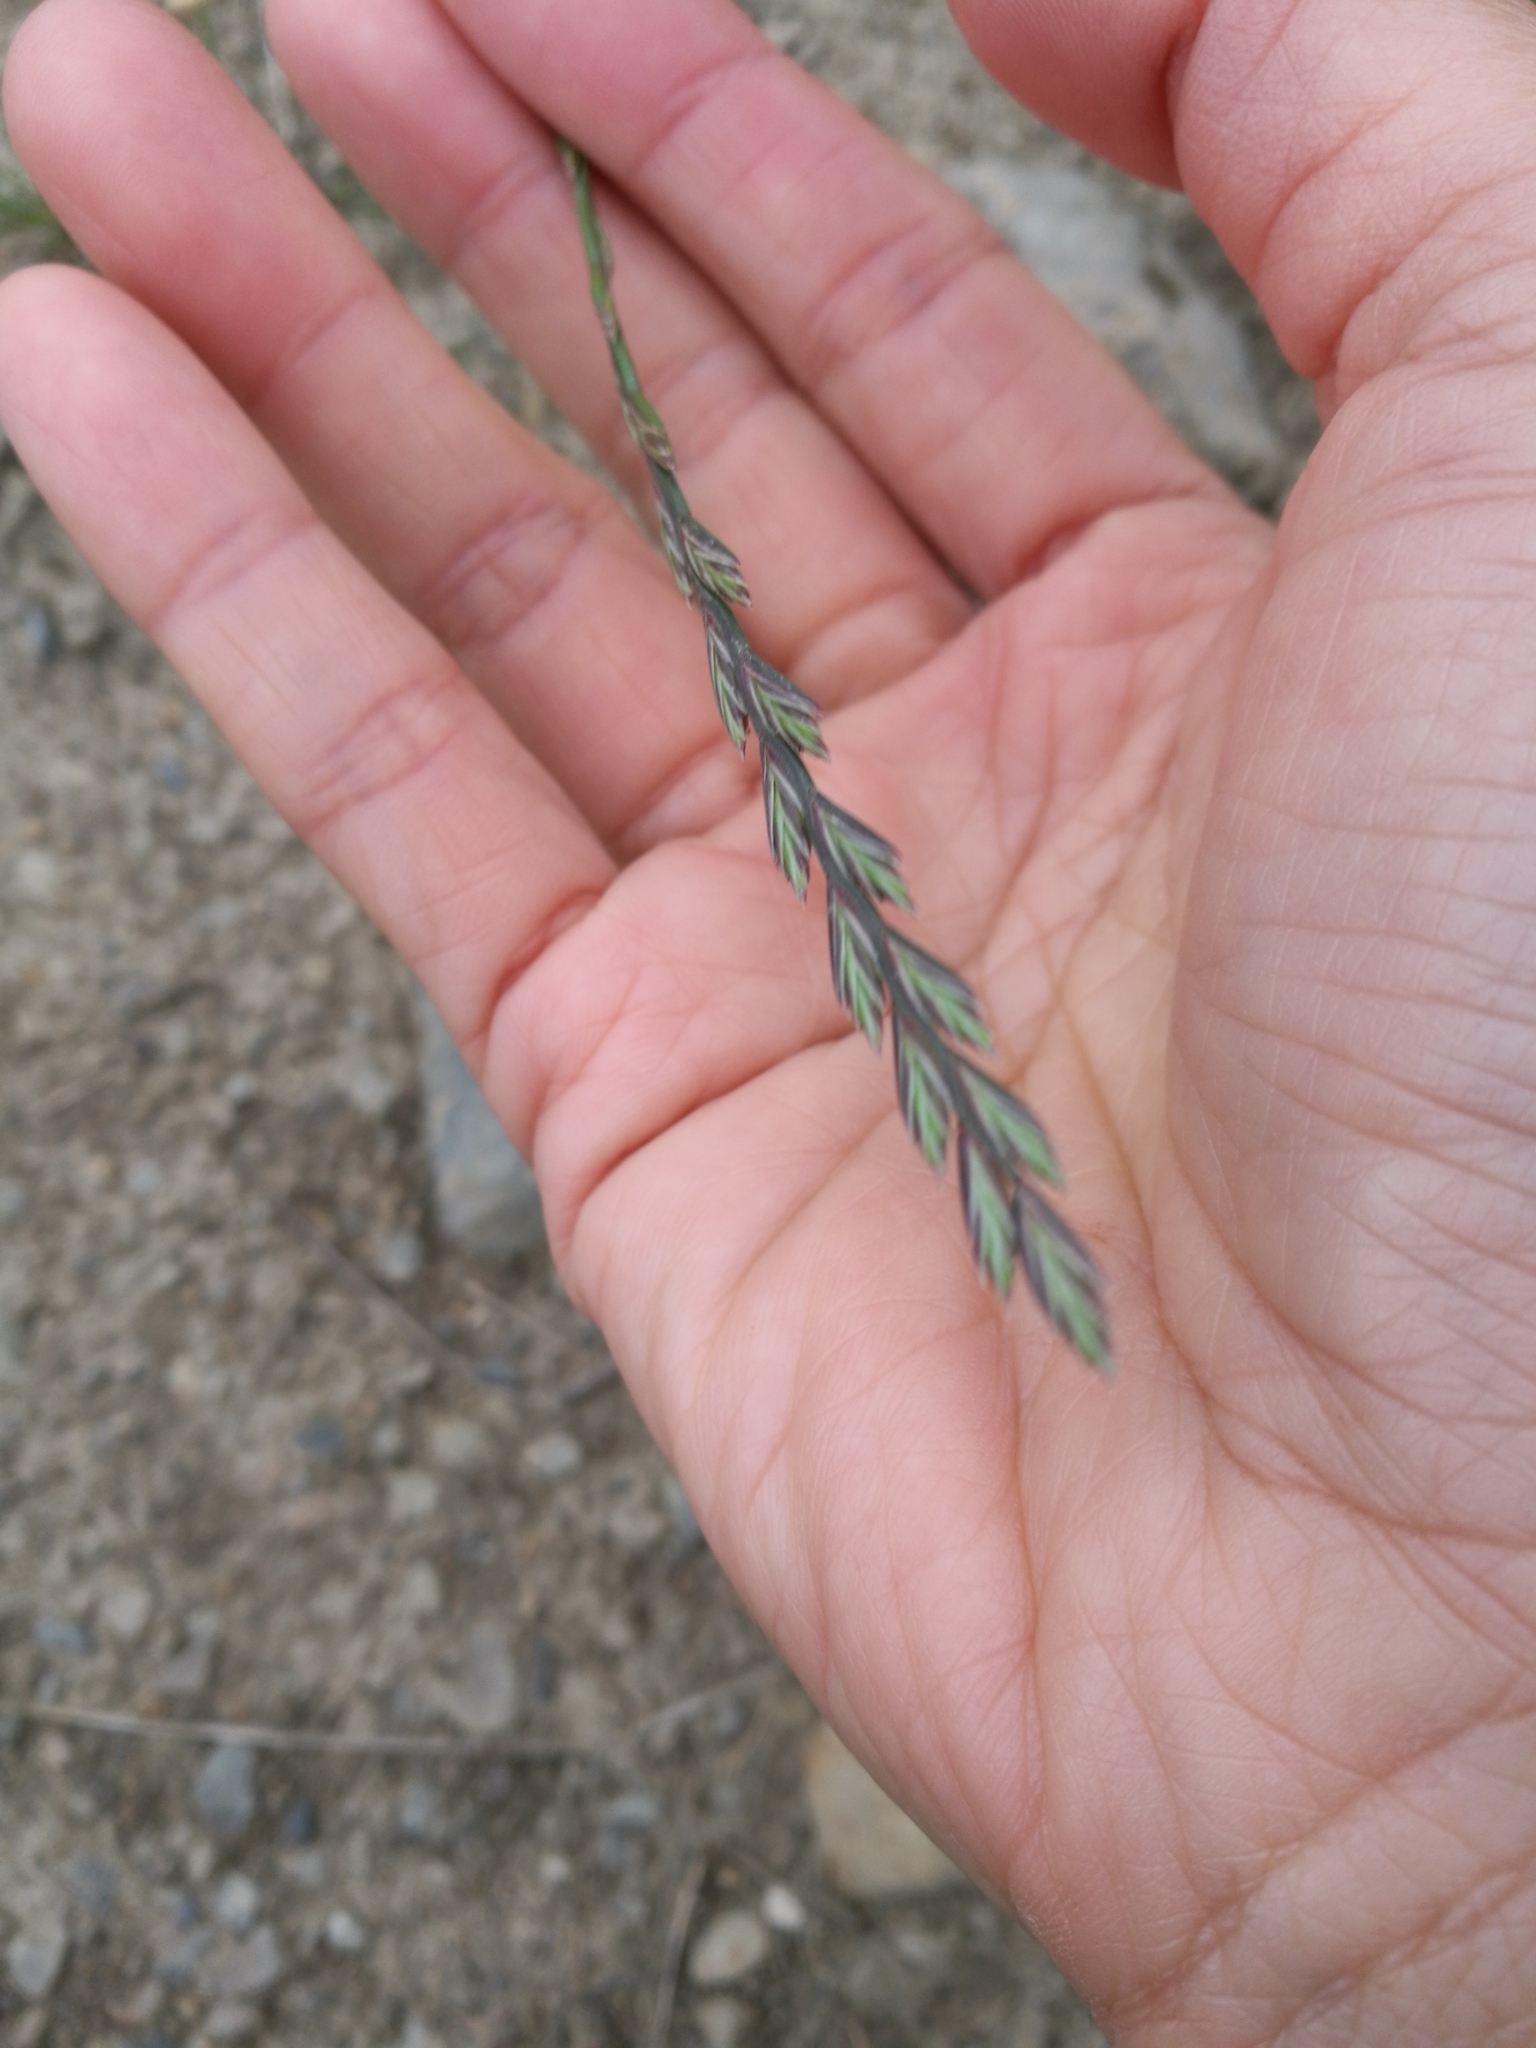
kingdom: Plantae
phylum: Tracheophyta
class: Liliopsida
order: Poales
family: Poaceae
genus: Lolium
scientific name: Lolium perenne
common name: Perennial ryegrass
